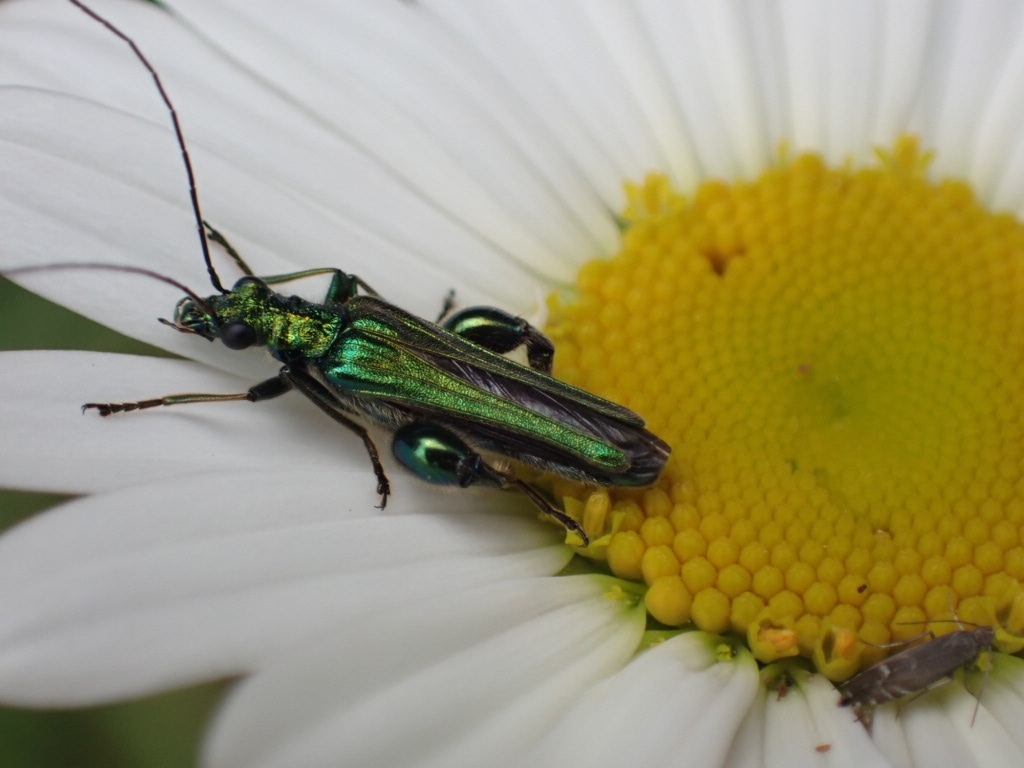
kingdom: Animalia
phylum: Arthropoda
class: Insecta
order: Coleoptera
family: Oedemeridae
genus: Oedemera
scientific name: Oedemera nobilis
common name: Swollen-thighed beetle
